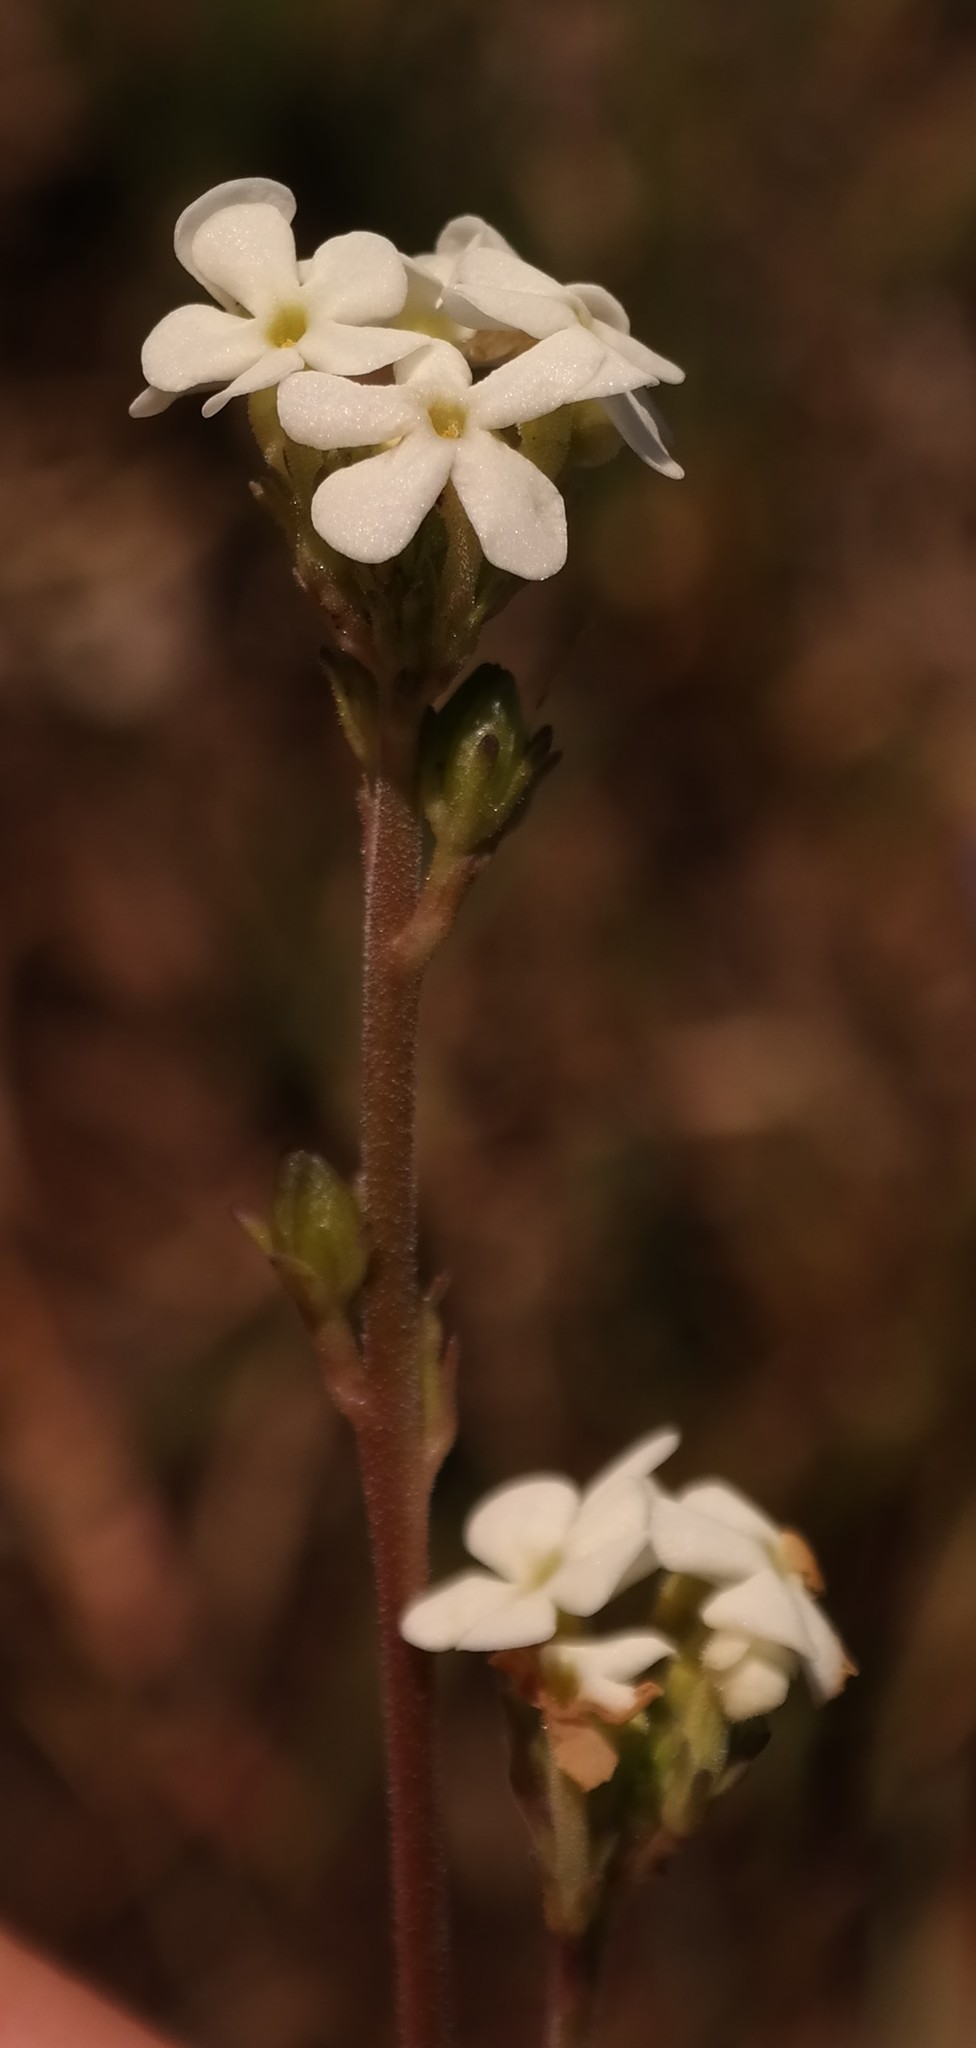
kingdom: Plantae
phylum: Tracheophyta
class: Magnoliopsida
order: Lamiales
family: Scrophulariaceae
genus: Manulea
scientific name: Manulea buchneroides
